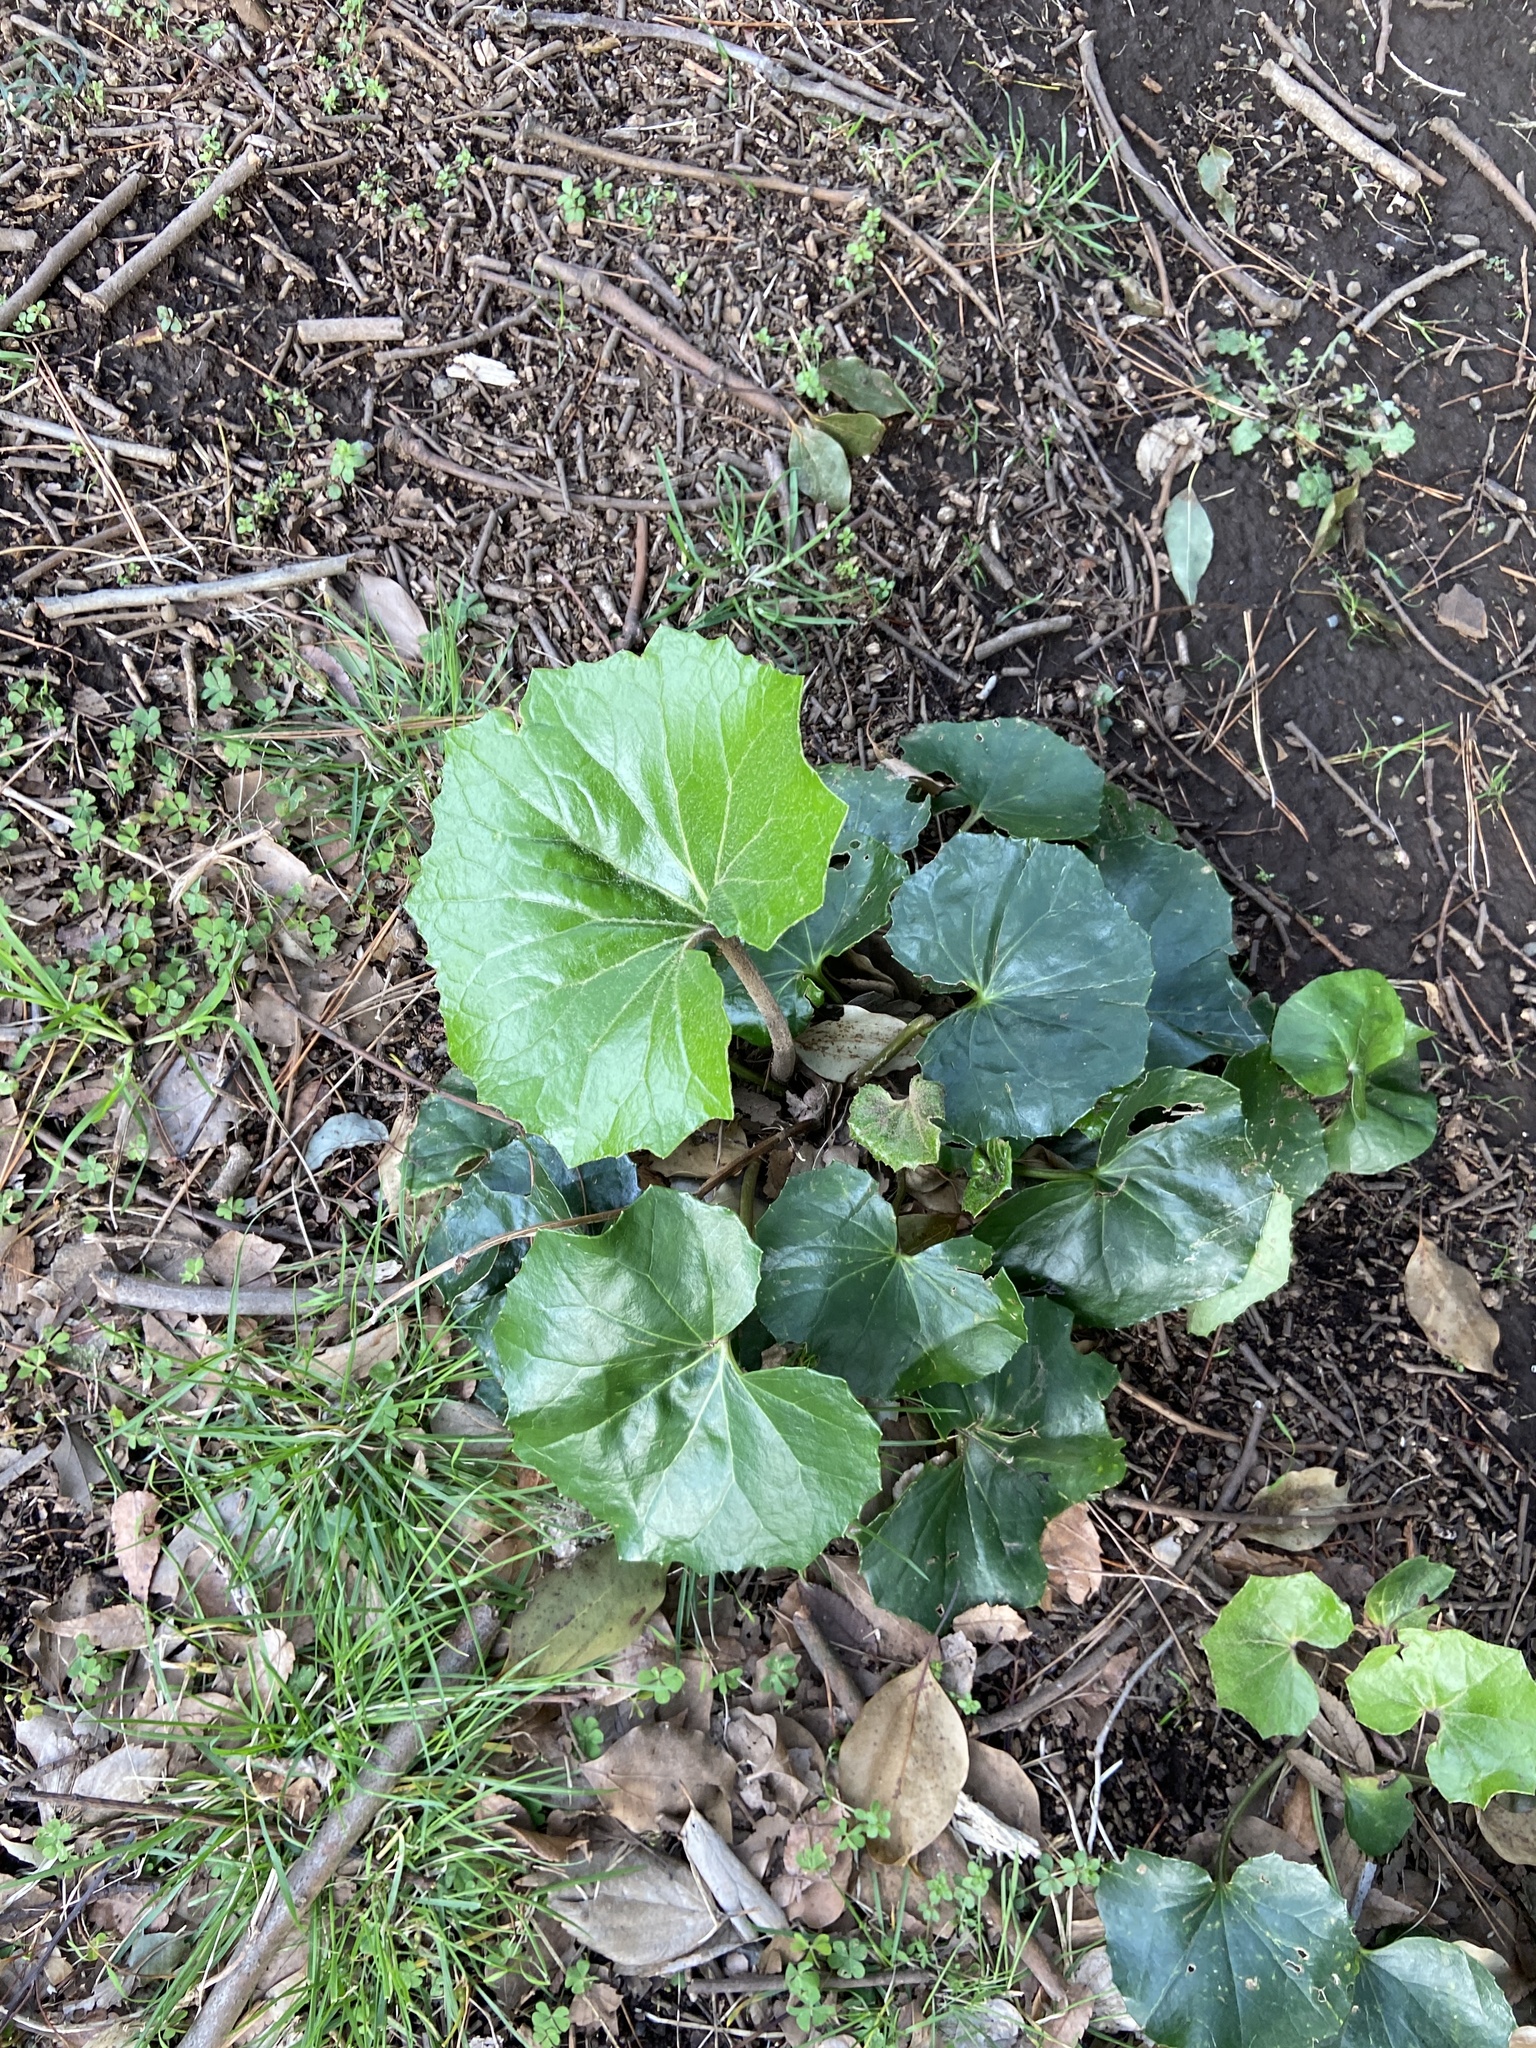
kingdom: Plantae
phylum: Tracheophyta
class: Magnoliopsida
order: Asterales
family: Asteraceae
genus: Farfugium
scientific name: Farfugium japonicum
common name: Leopardplant
